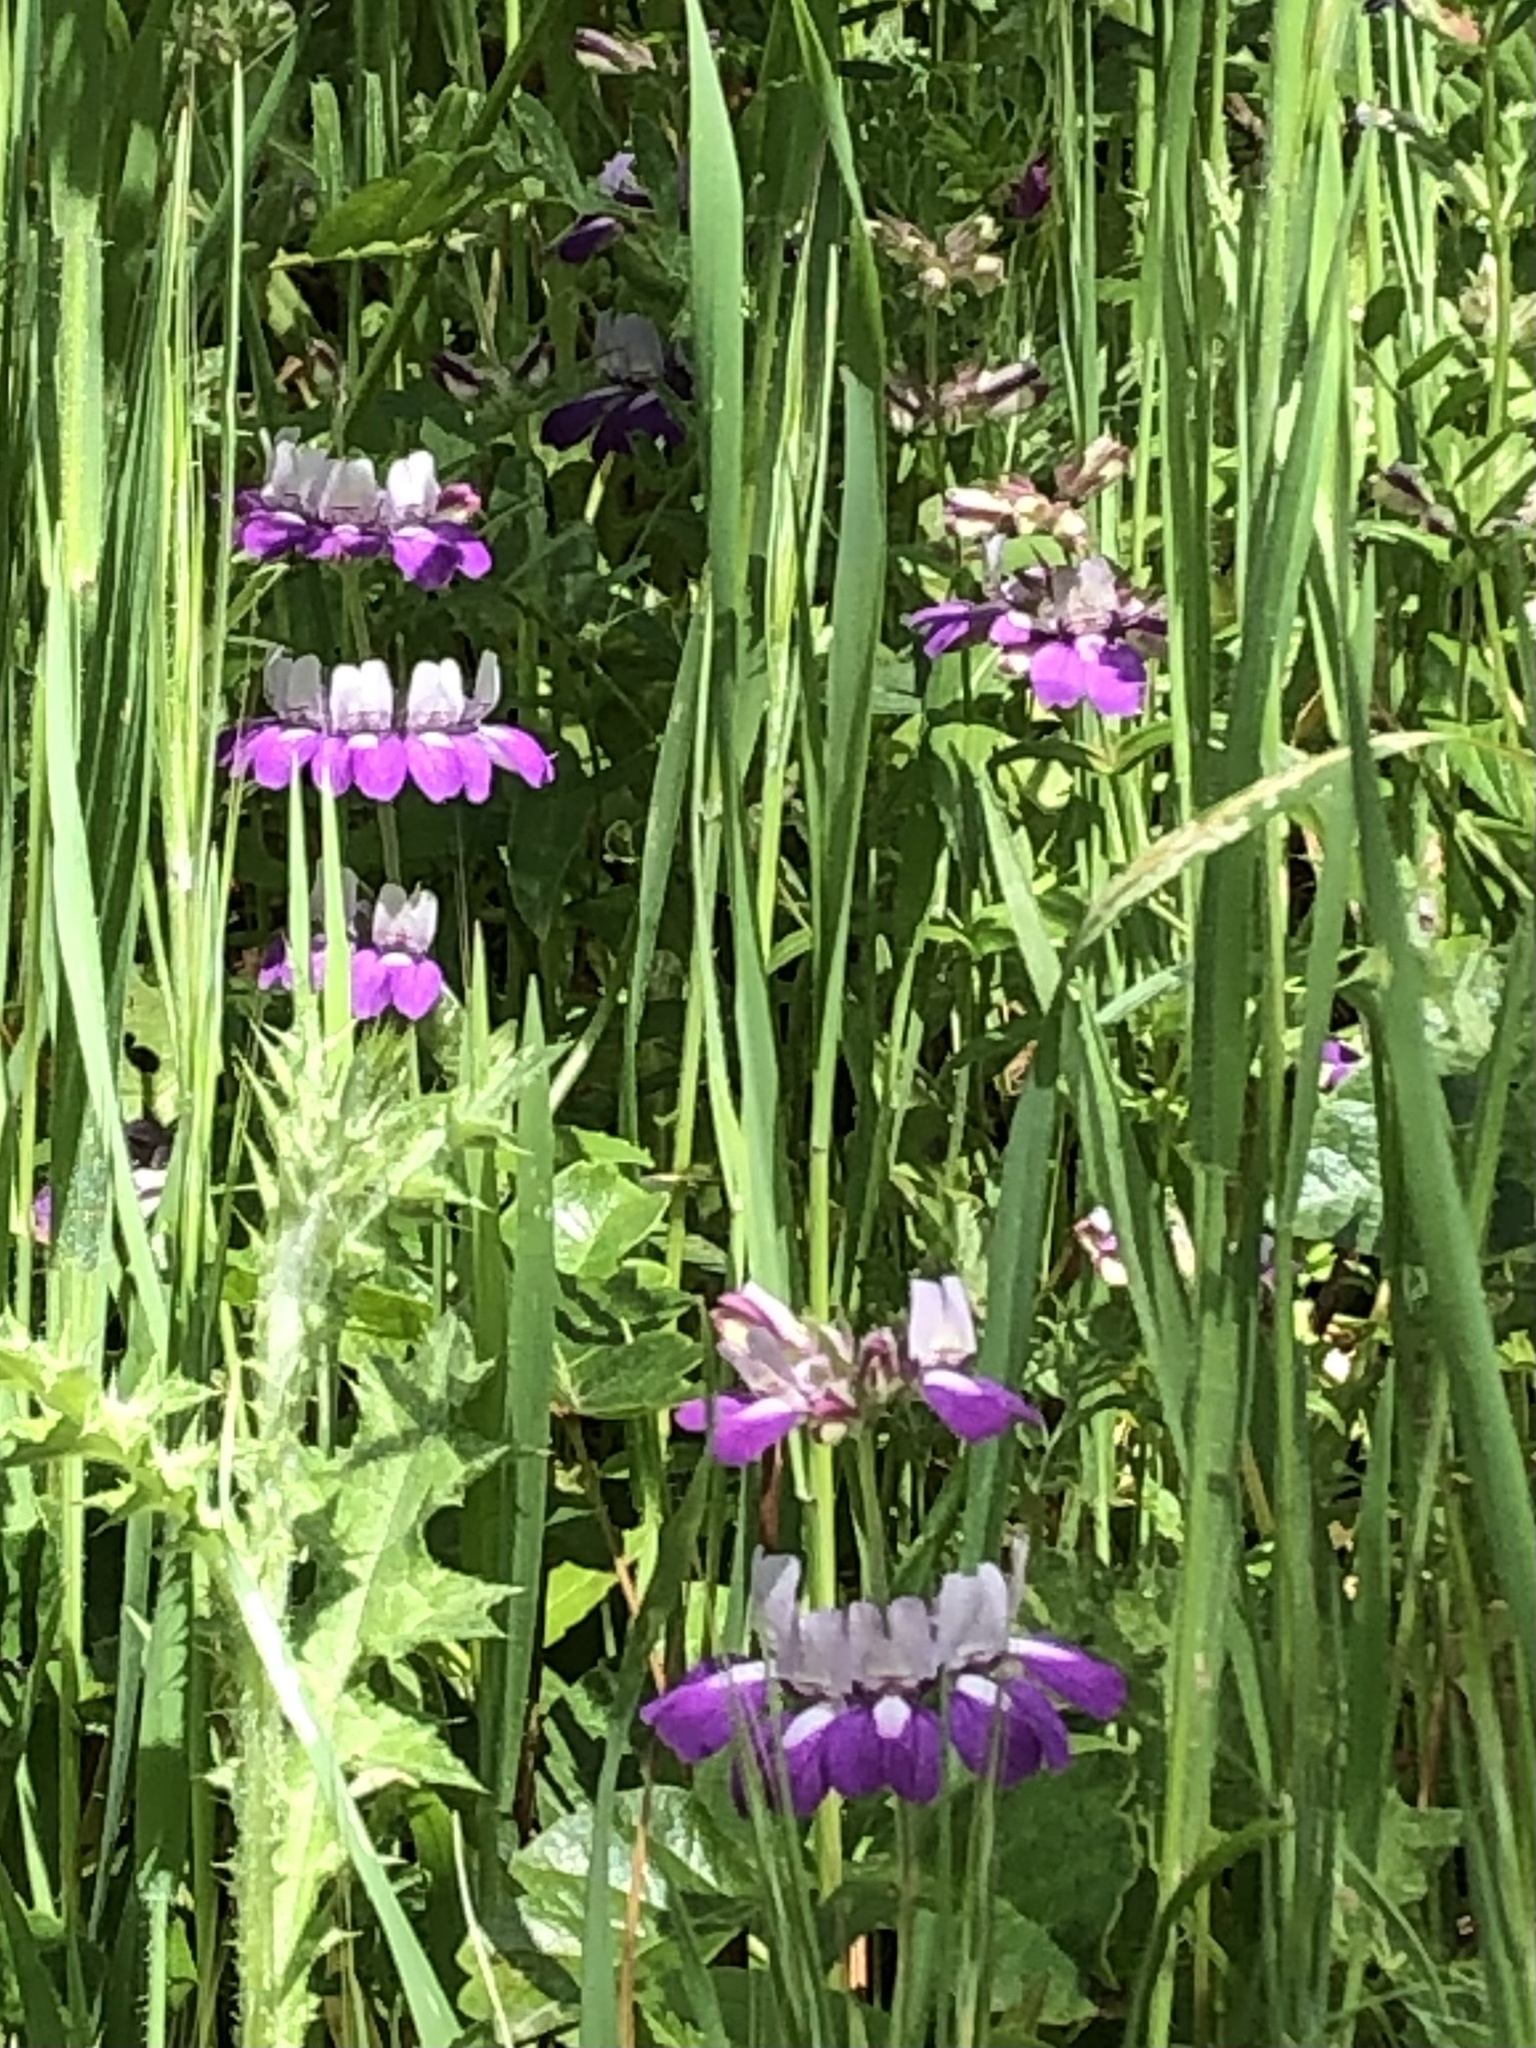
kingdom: Plantae
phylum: Tracheophyta
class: Magnoliopsida
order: Lamiales
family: Plantaginaceae
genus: Collinsia
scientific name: Collinsia heterophylla
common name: Chinese-houses
